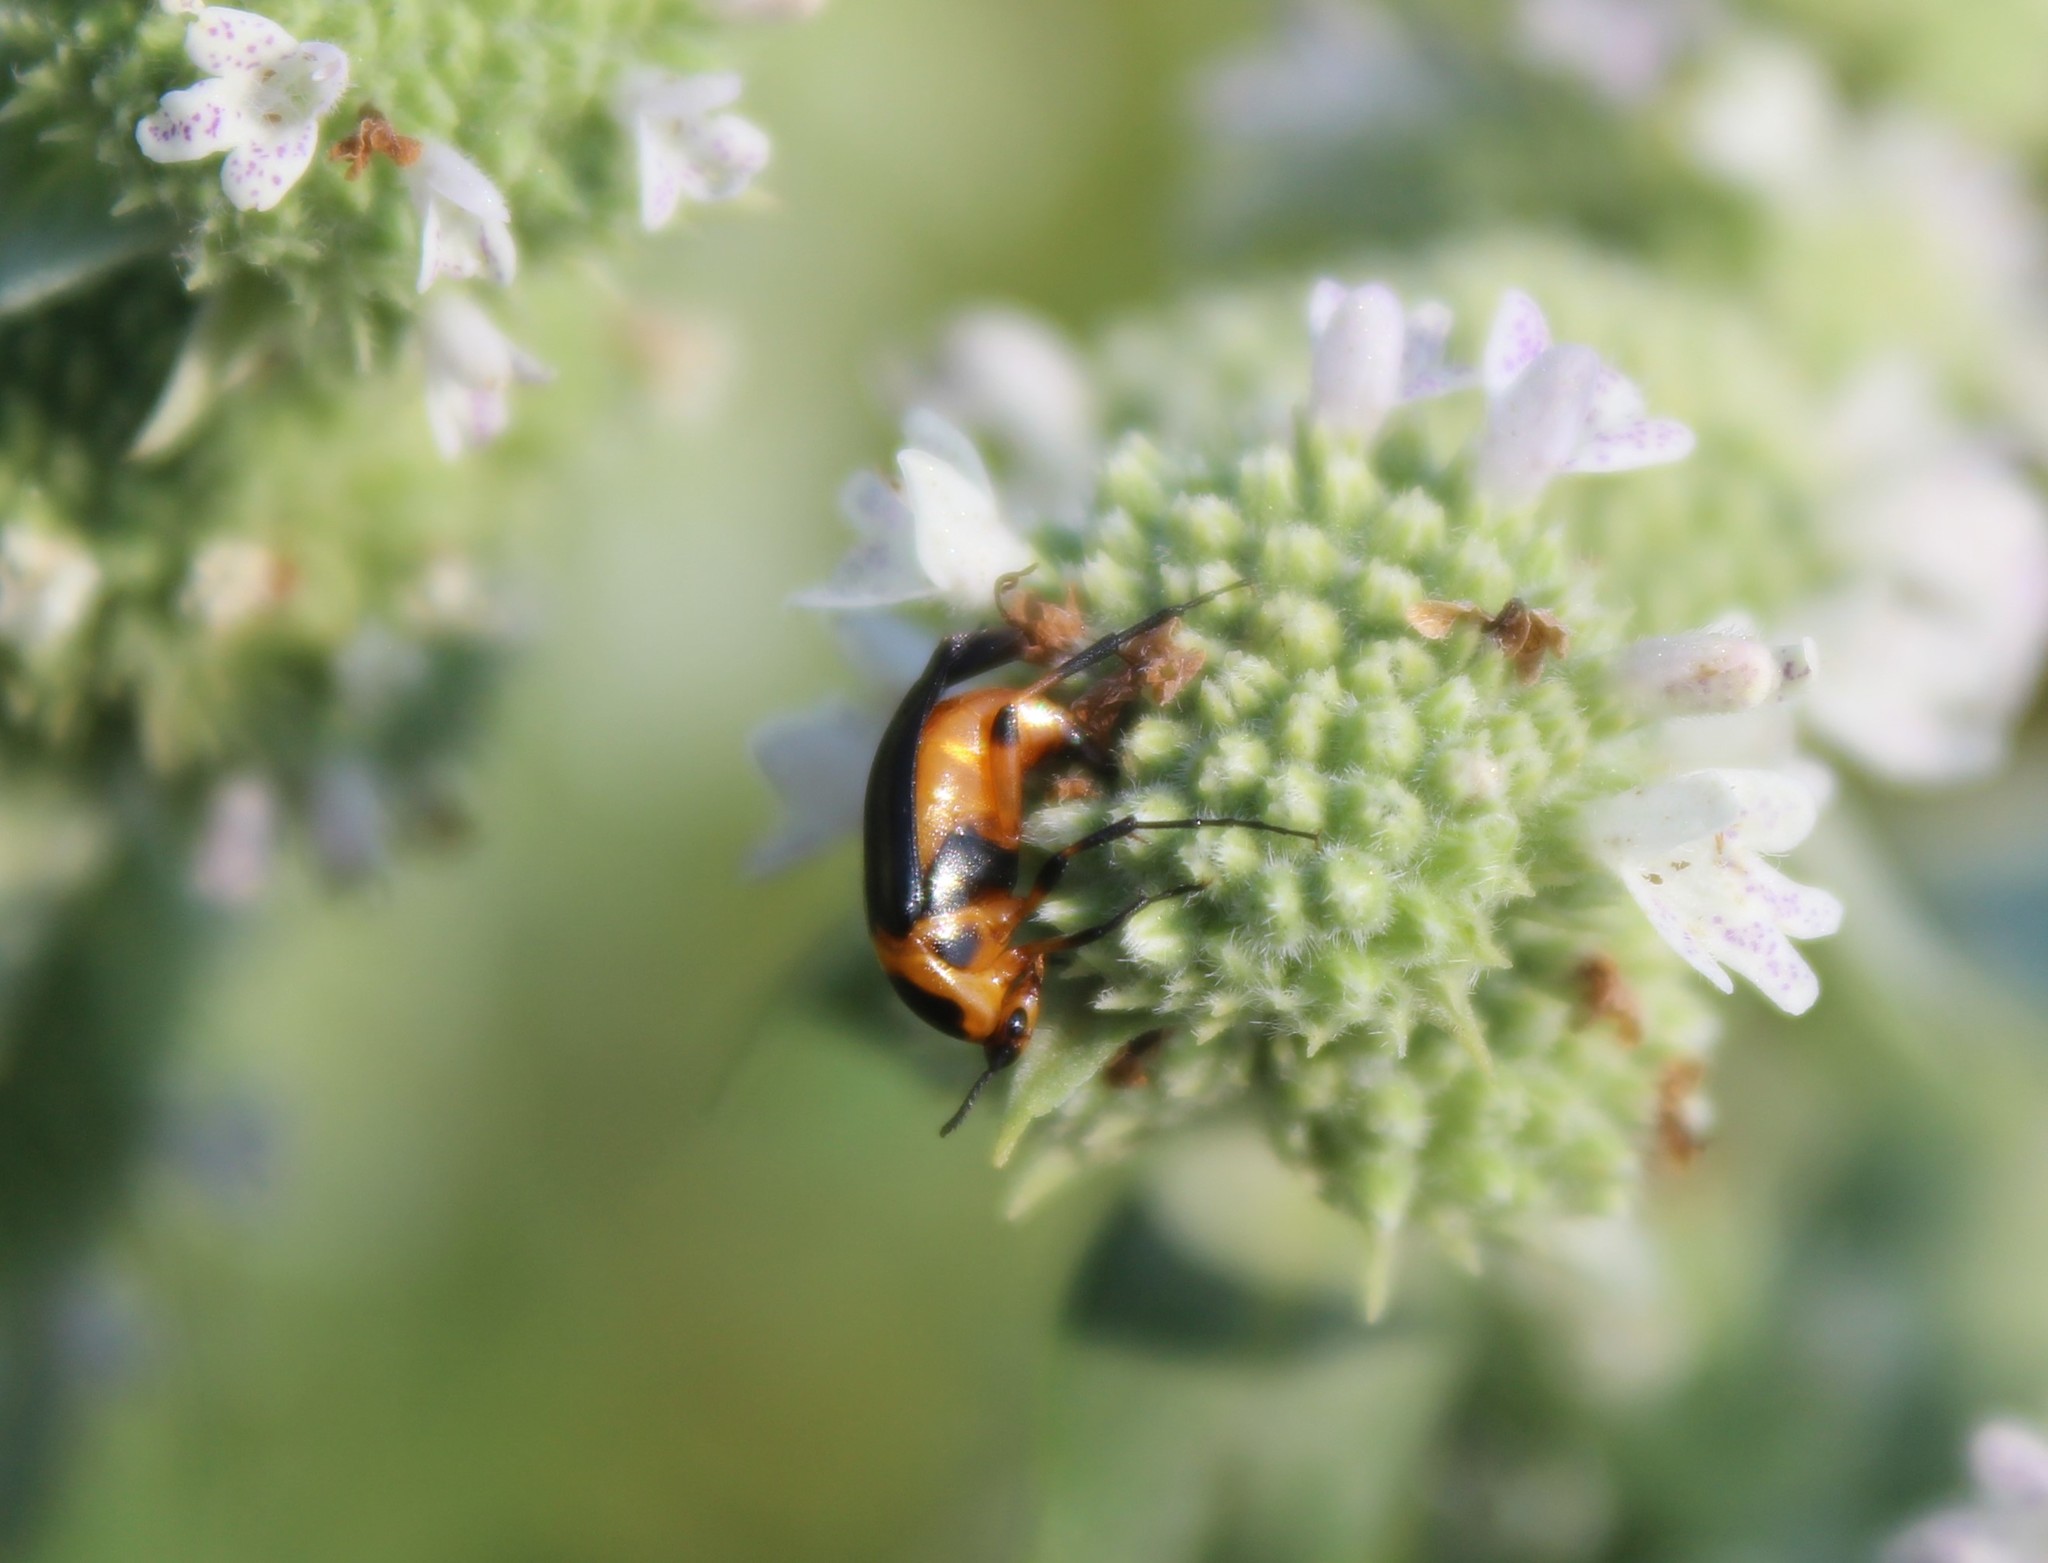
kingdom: Animalia
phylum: Arthropoda
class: Insecta
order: Coleoptera
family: Ripiphoridae
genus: Macrosiagon
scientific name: Macrosiagon limbatum
